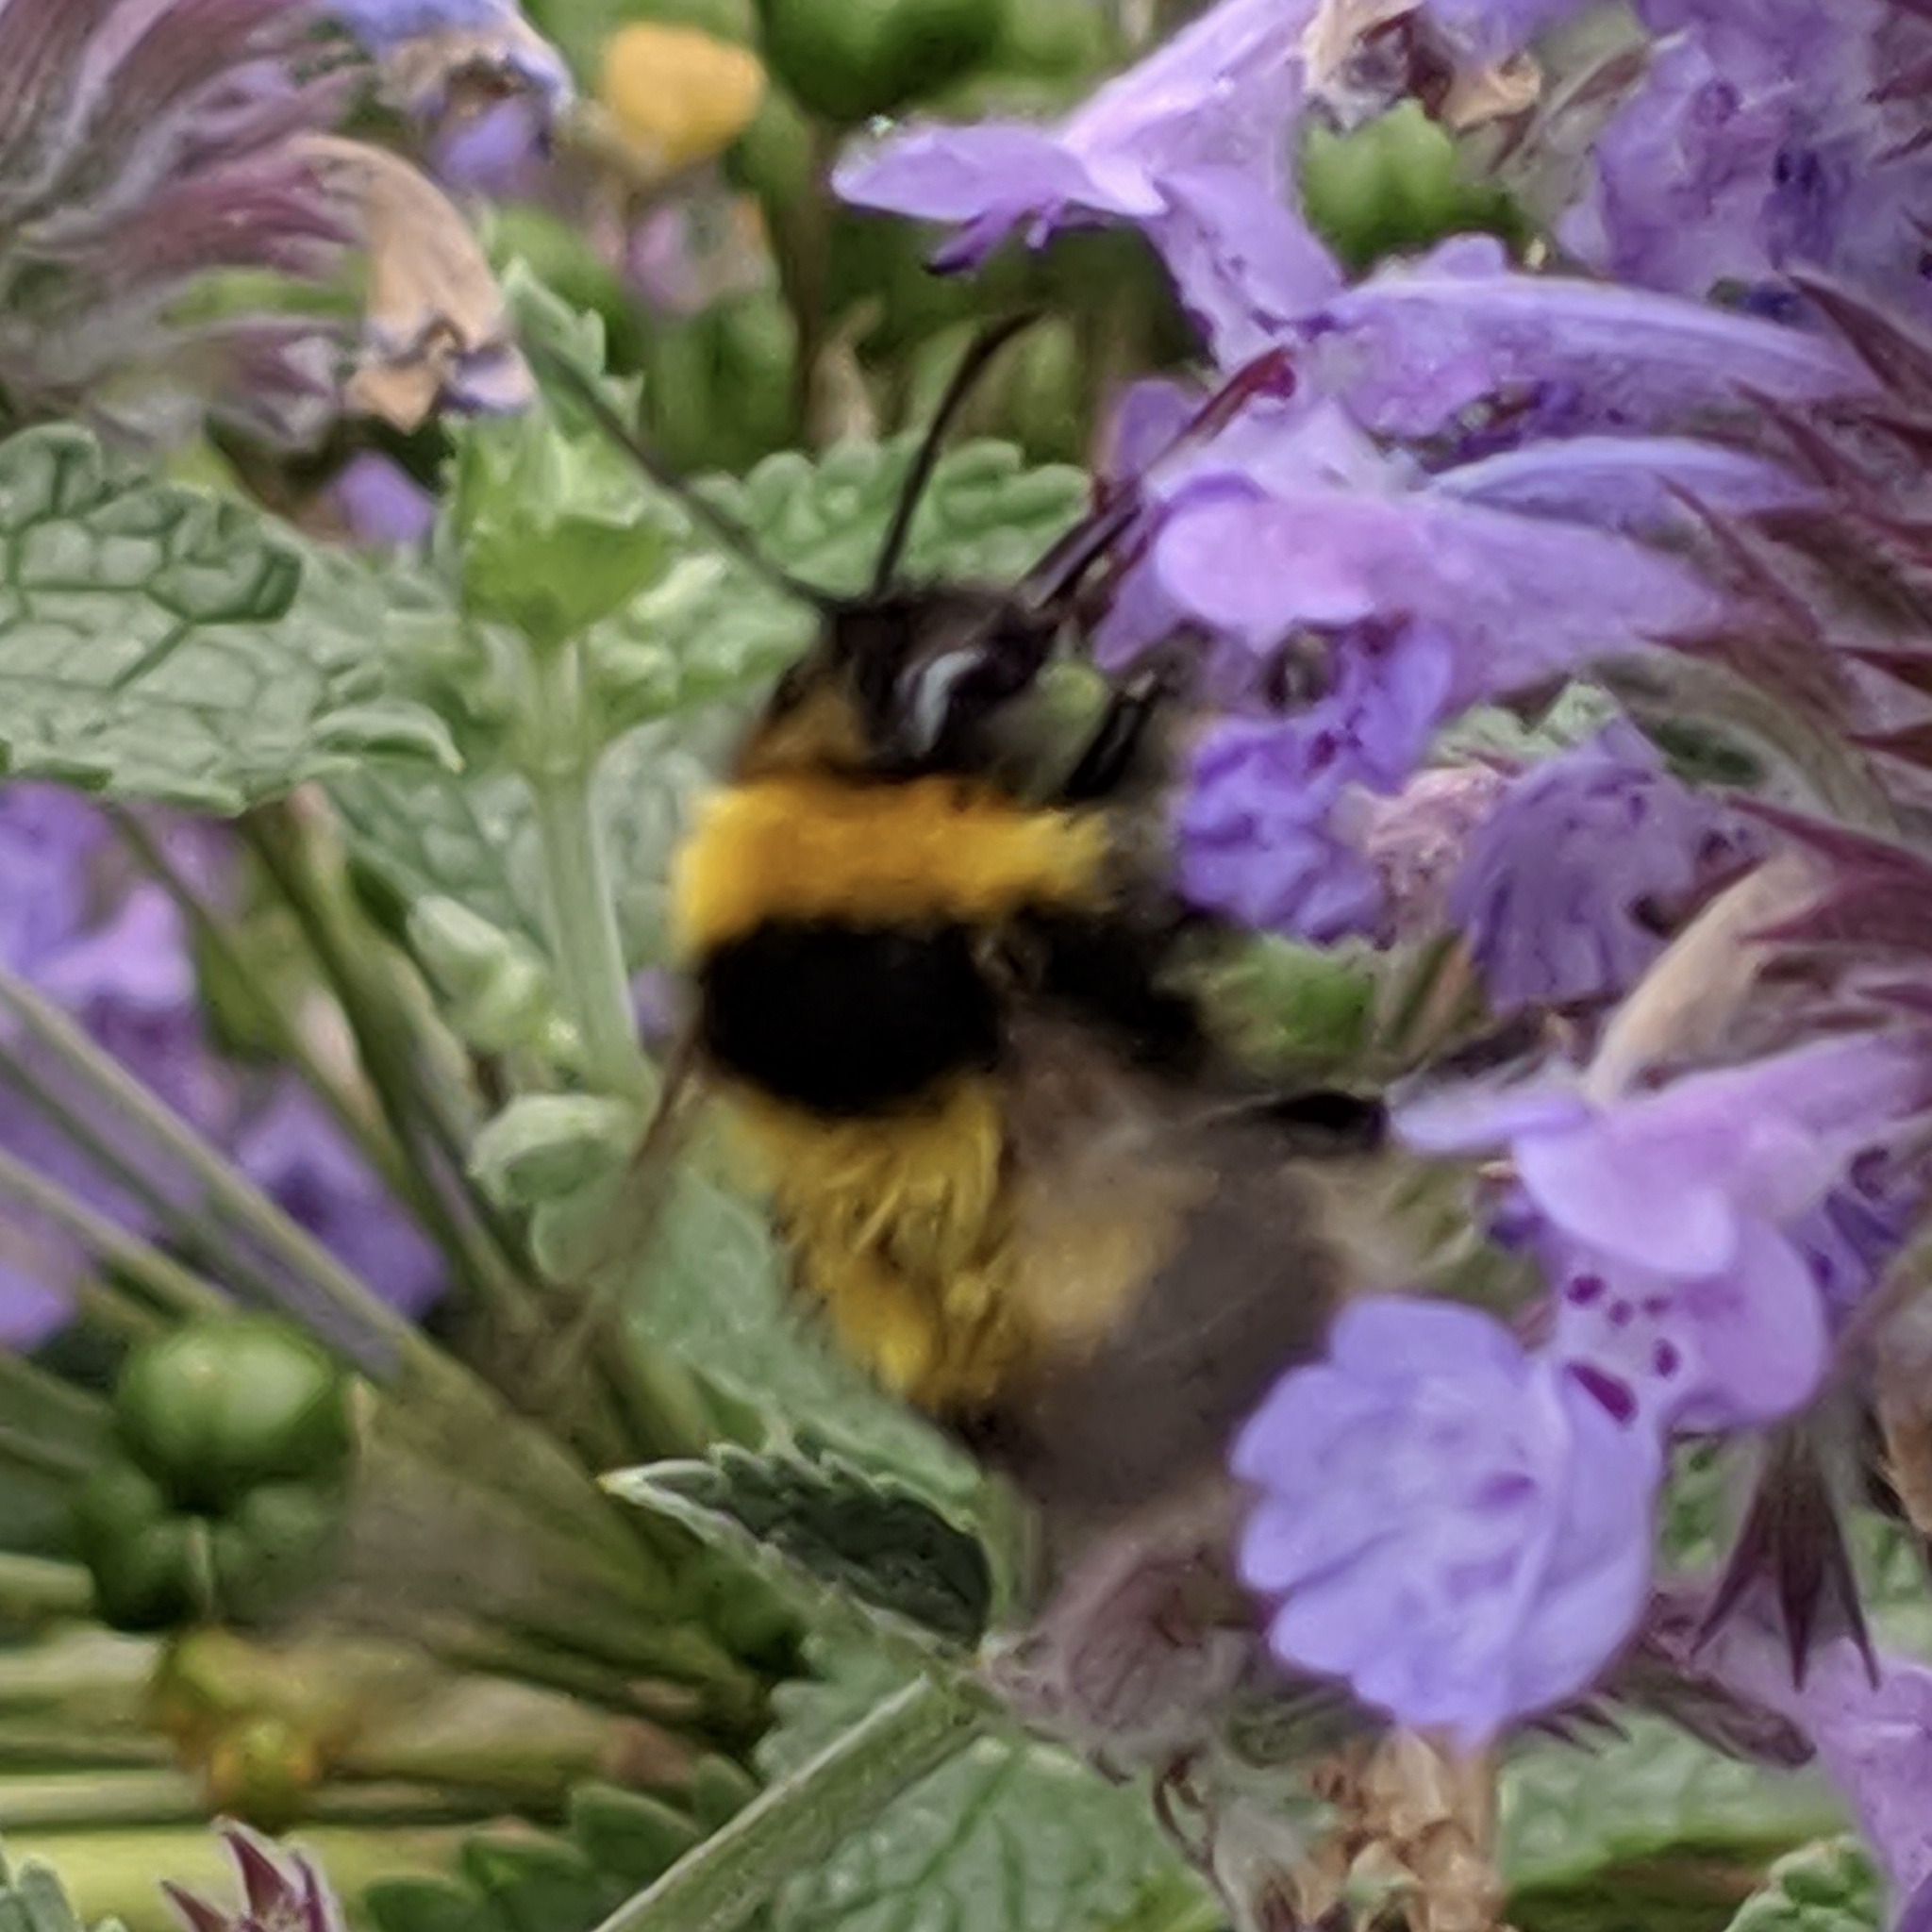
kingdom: Animalia
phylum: Arthropoda
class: Insecta
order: Hymenoptera
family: Apidae
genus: Bombus
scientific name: Bombus hortorum
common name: Garden bumblebee
